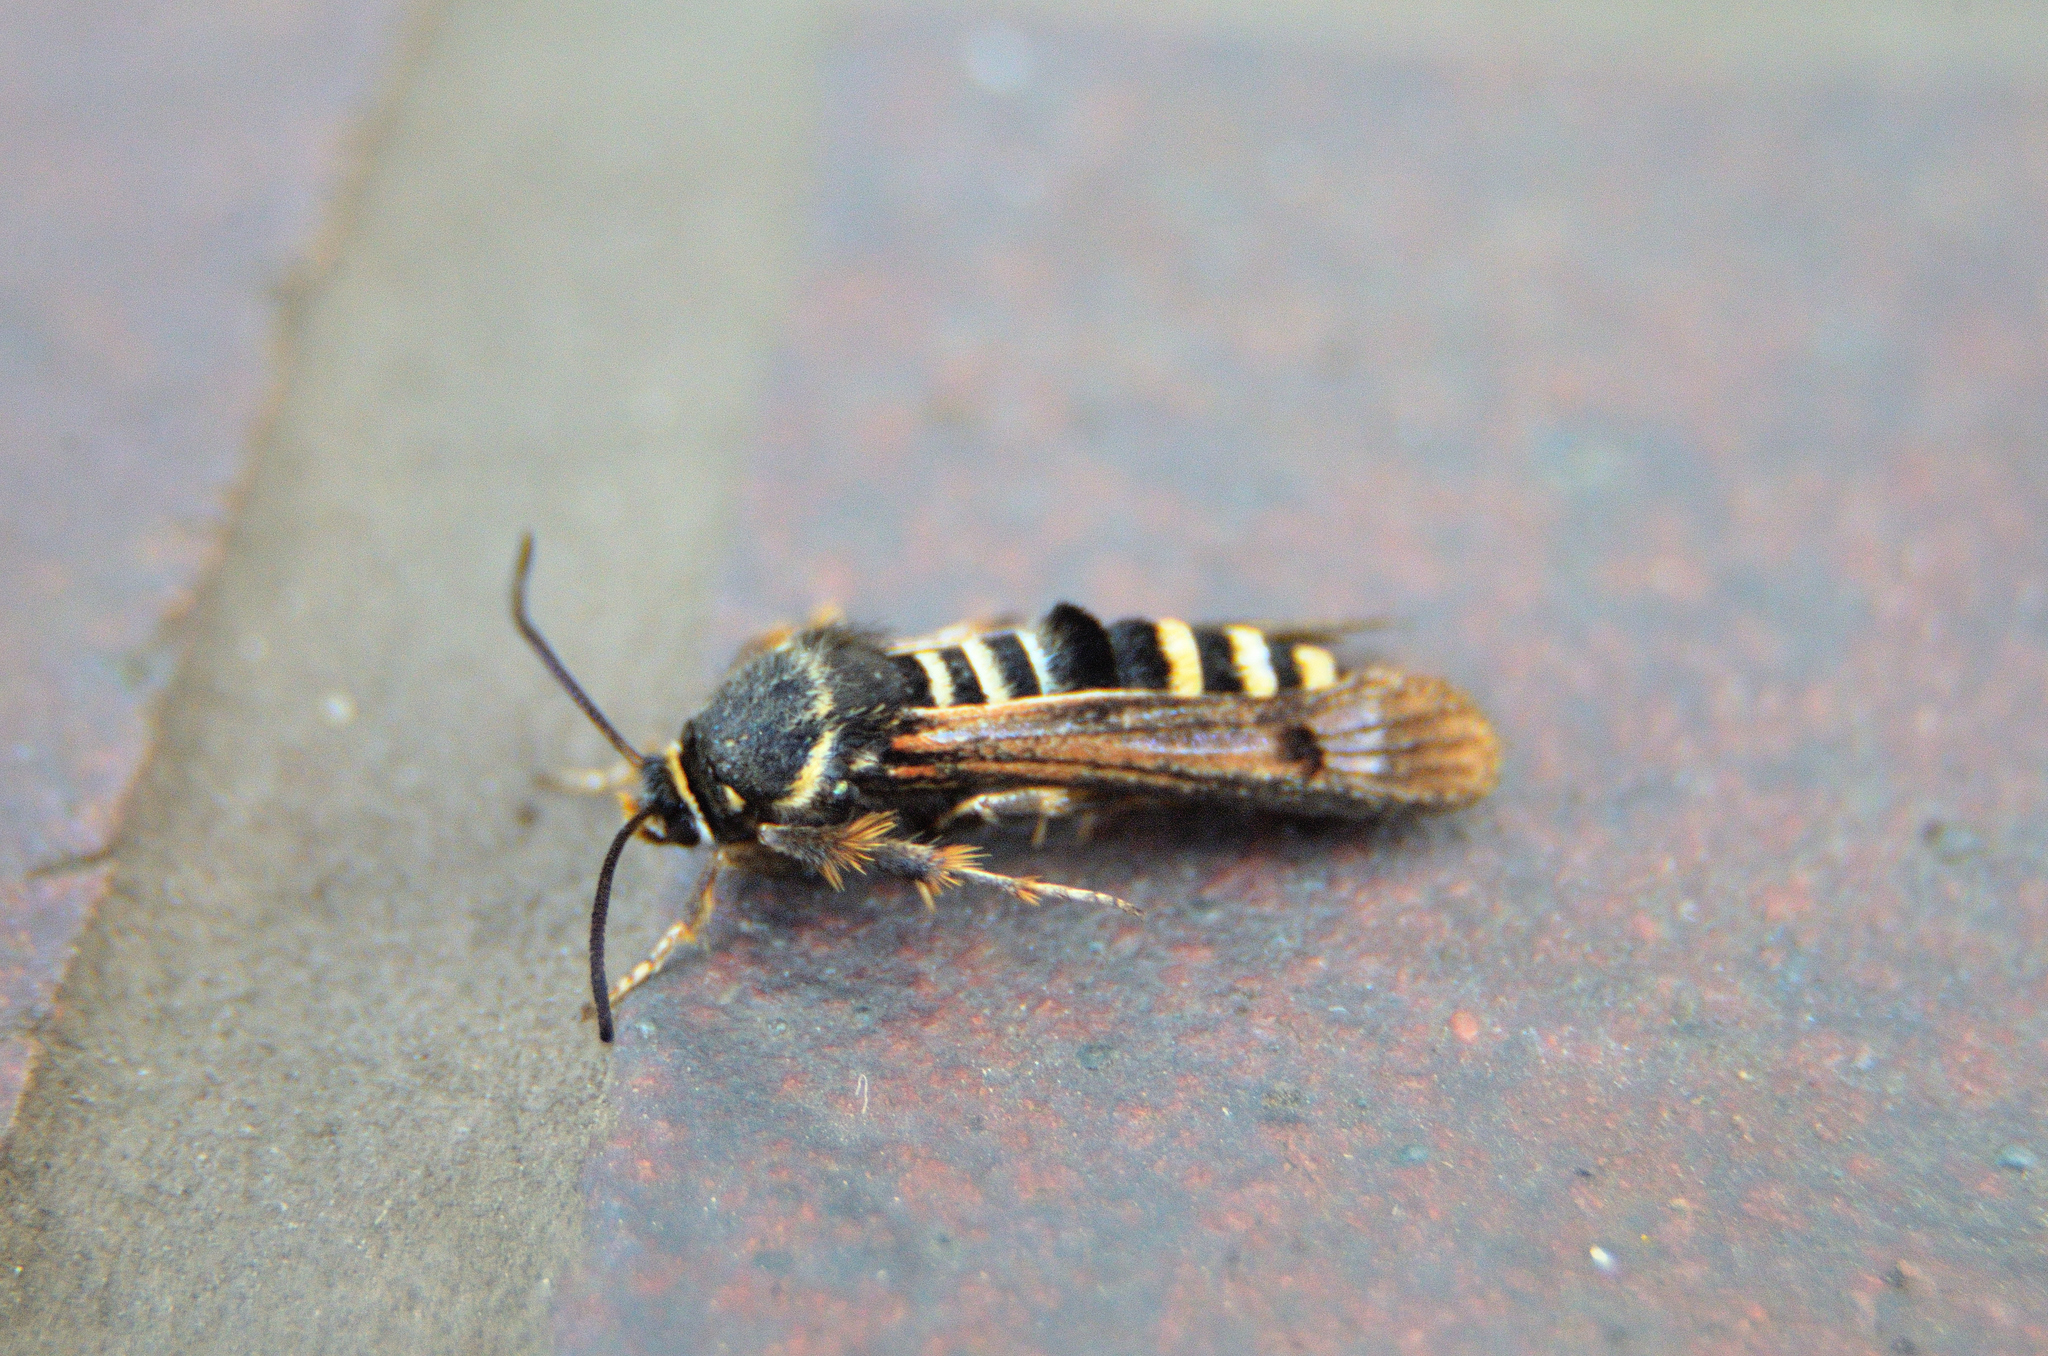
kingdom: Animalia
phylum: Arthropoda
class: Insecta
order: Lepidoptera
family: Sesiidae
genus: Pennisetia
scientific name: Pennisetia hylaeiformis
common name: Raspberry clearwing
